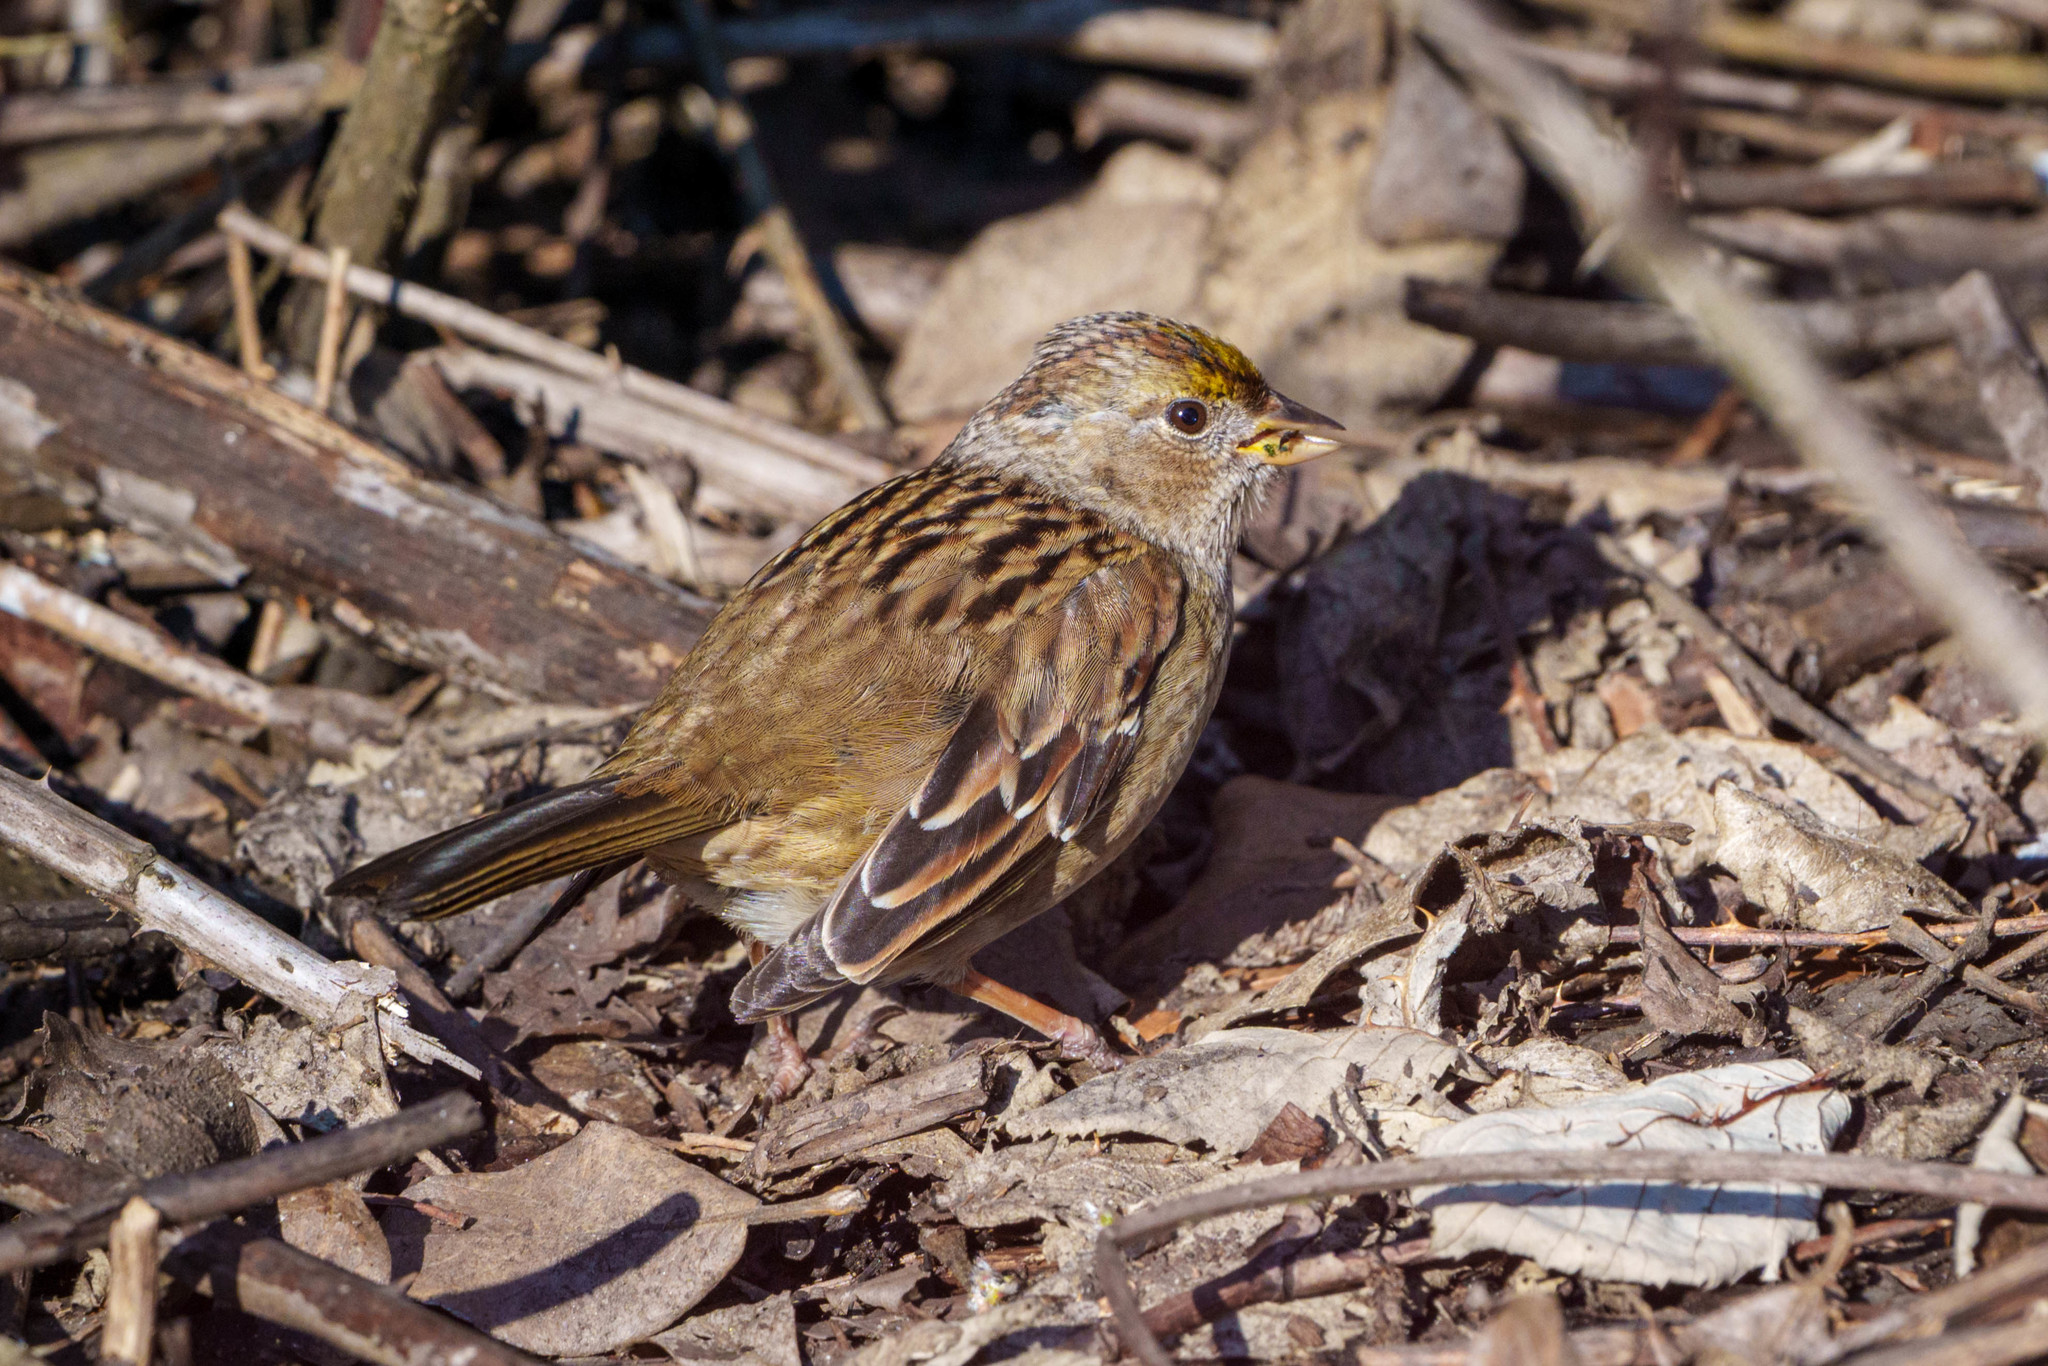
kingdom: Animalia
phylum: Chordata
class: Aves
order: Passeriformes
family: Passerellidae
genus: Zonotrichia
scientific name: Zonotrichia atricapilla
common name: Golden-crowned sparrow
